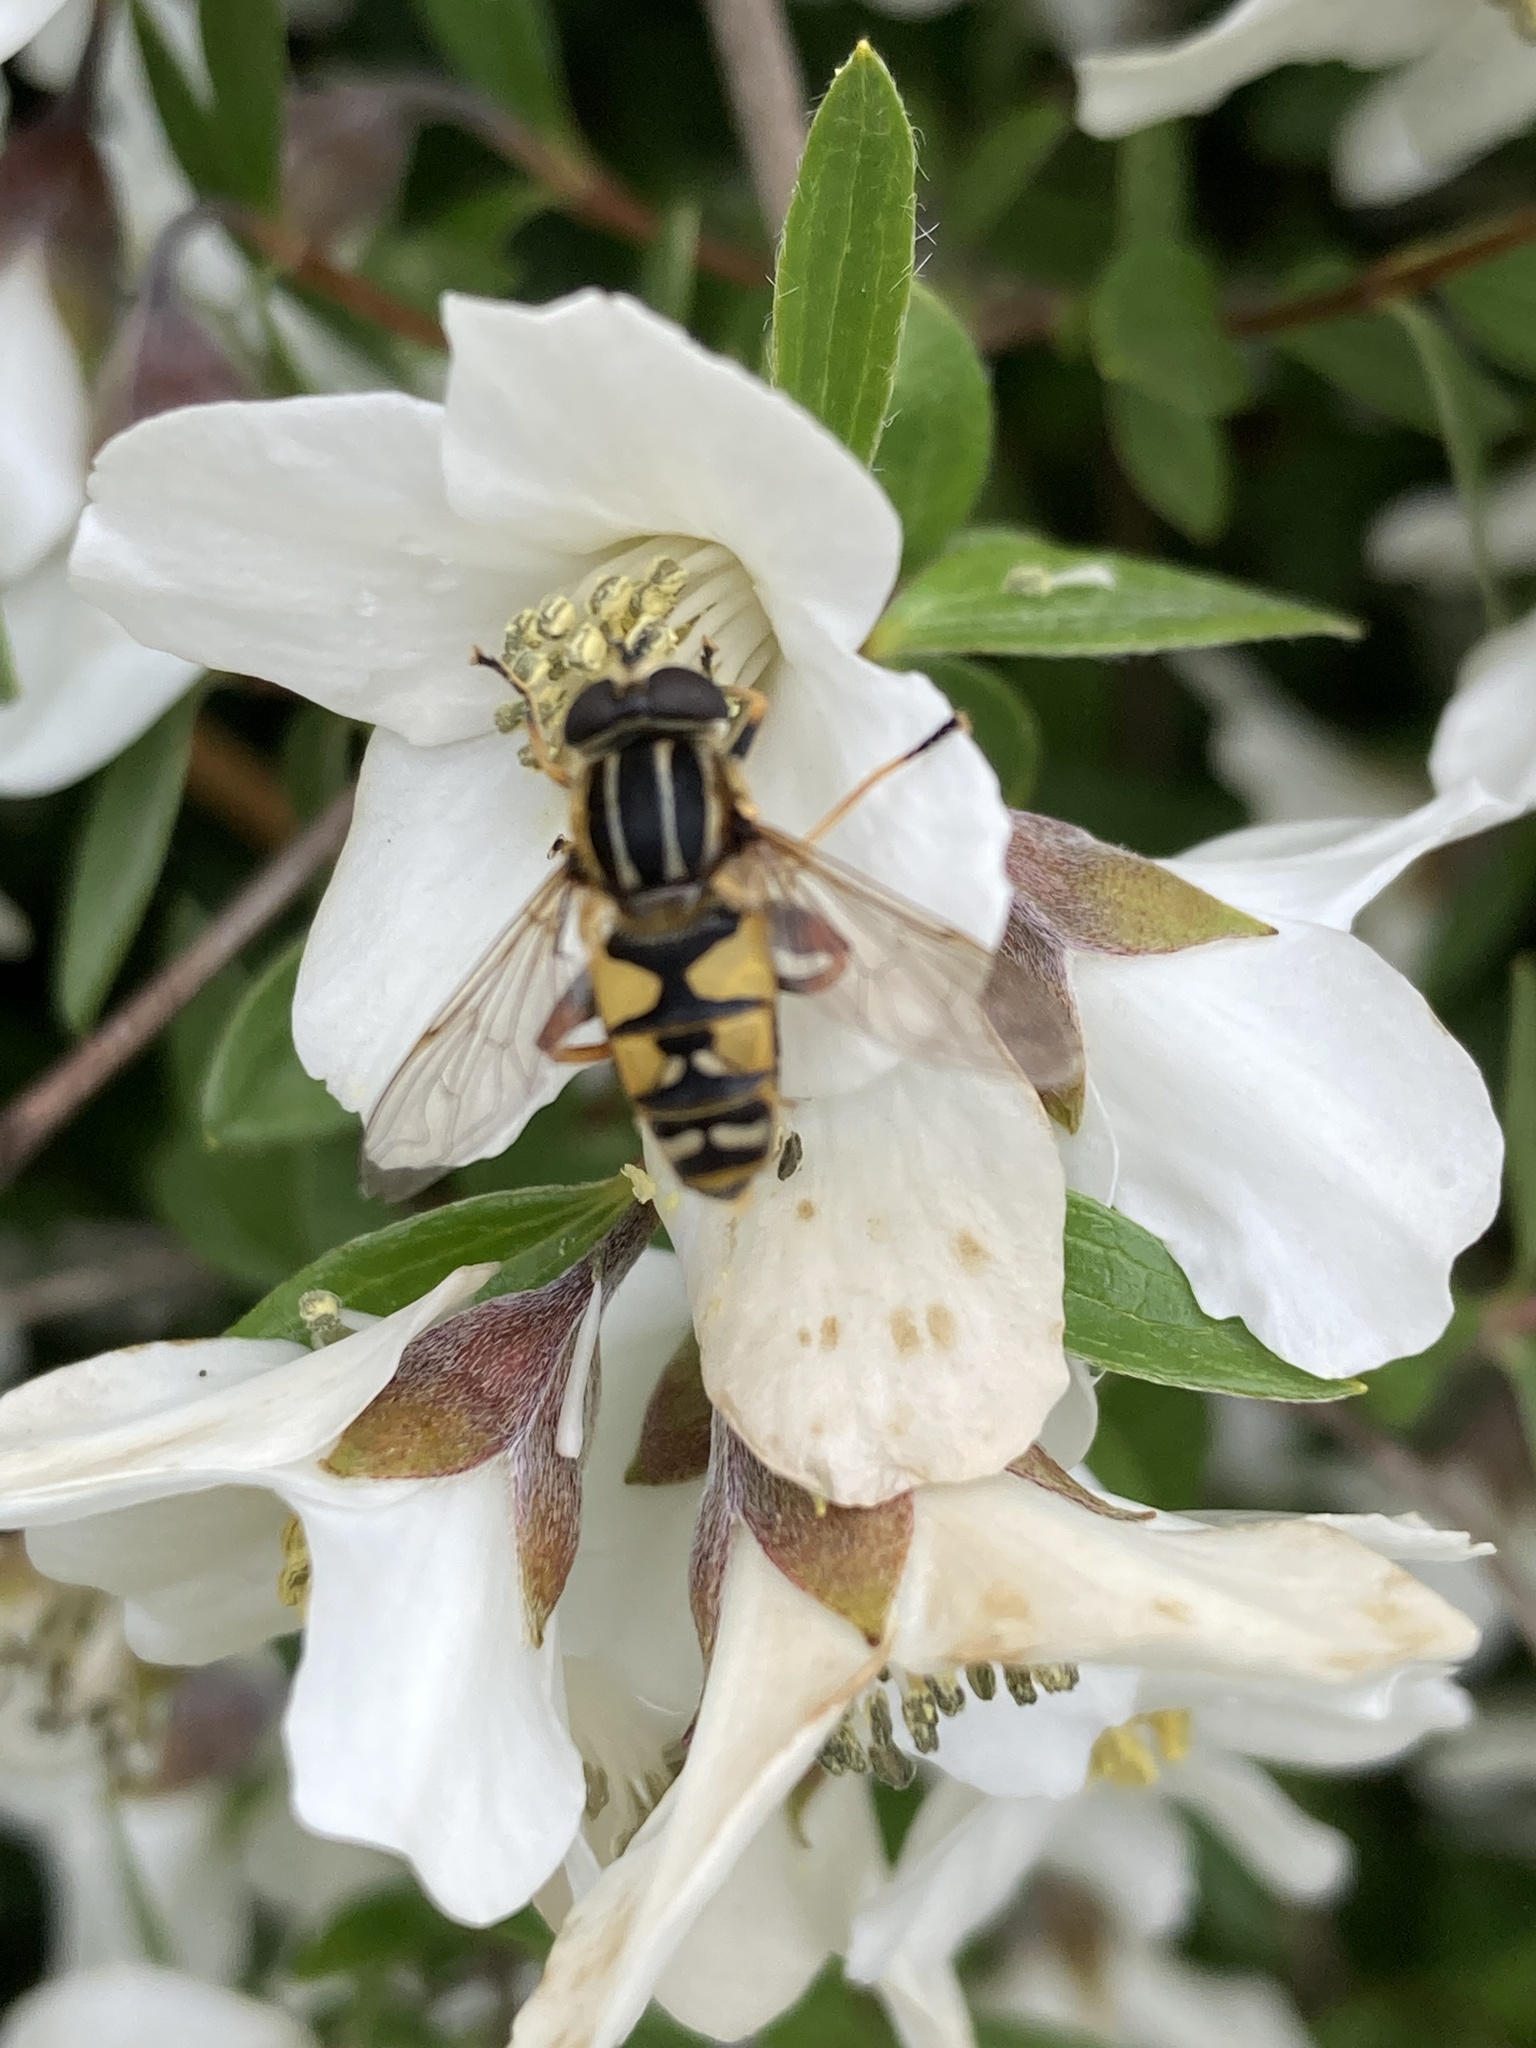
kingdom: Animalia
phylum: Arthropoda
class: Insecta
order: Diptera
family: Syrphidae
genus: Helophilus
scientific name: Helophilus pendulus
